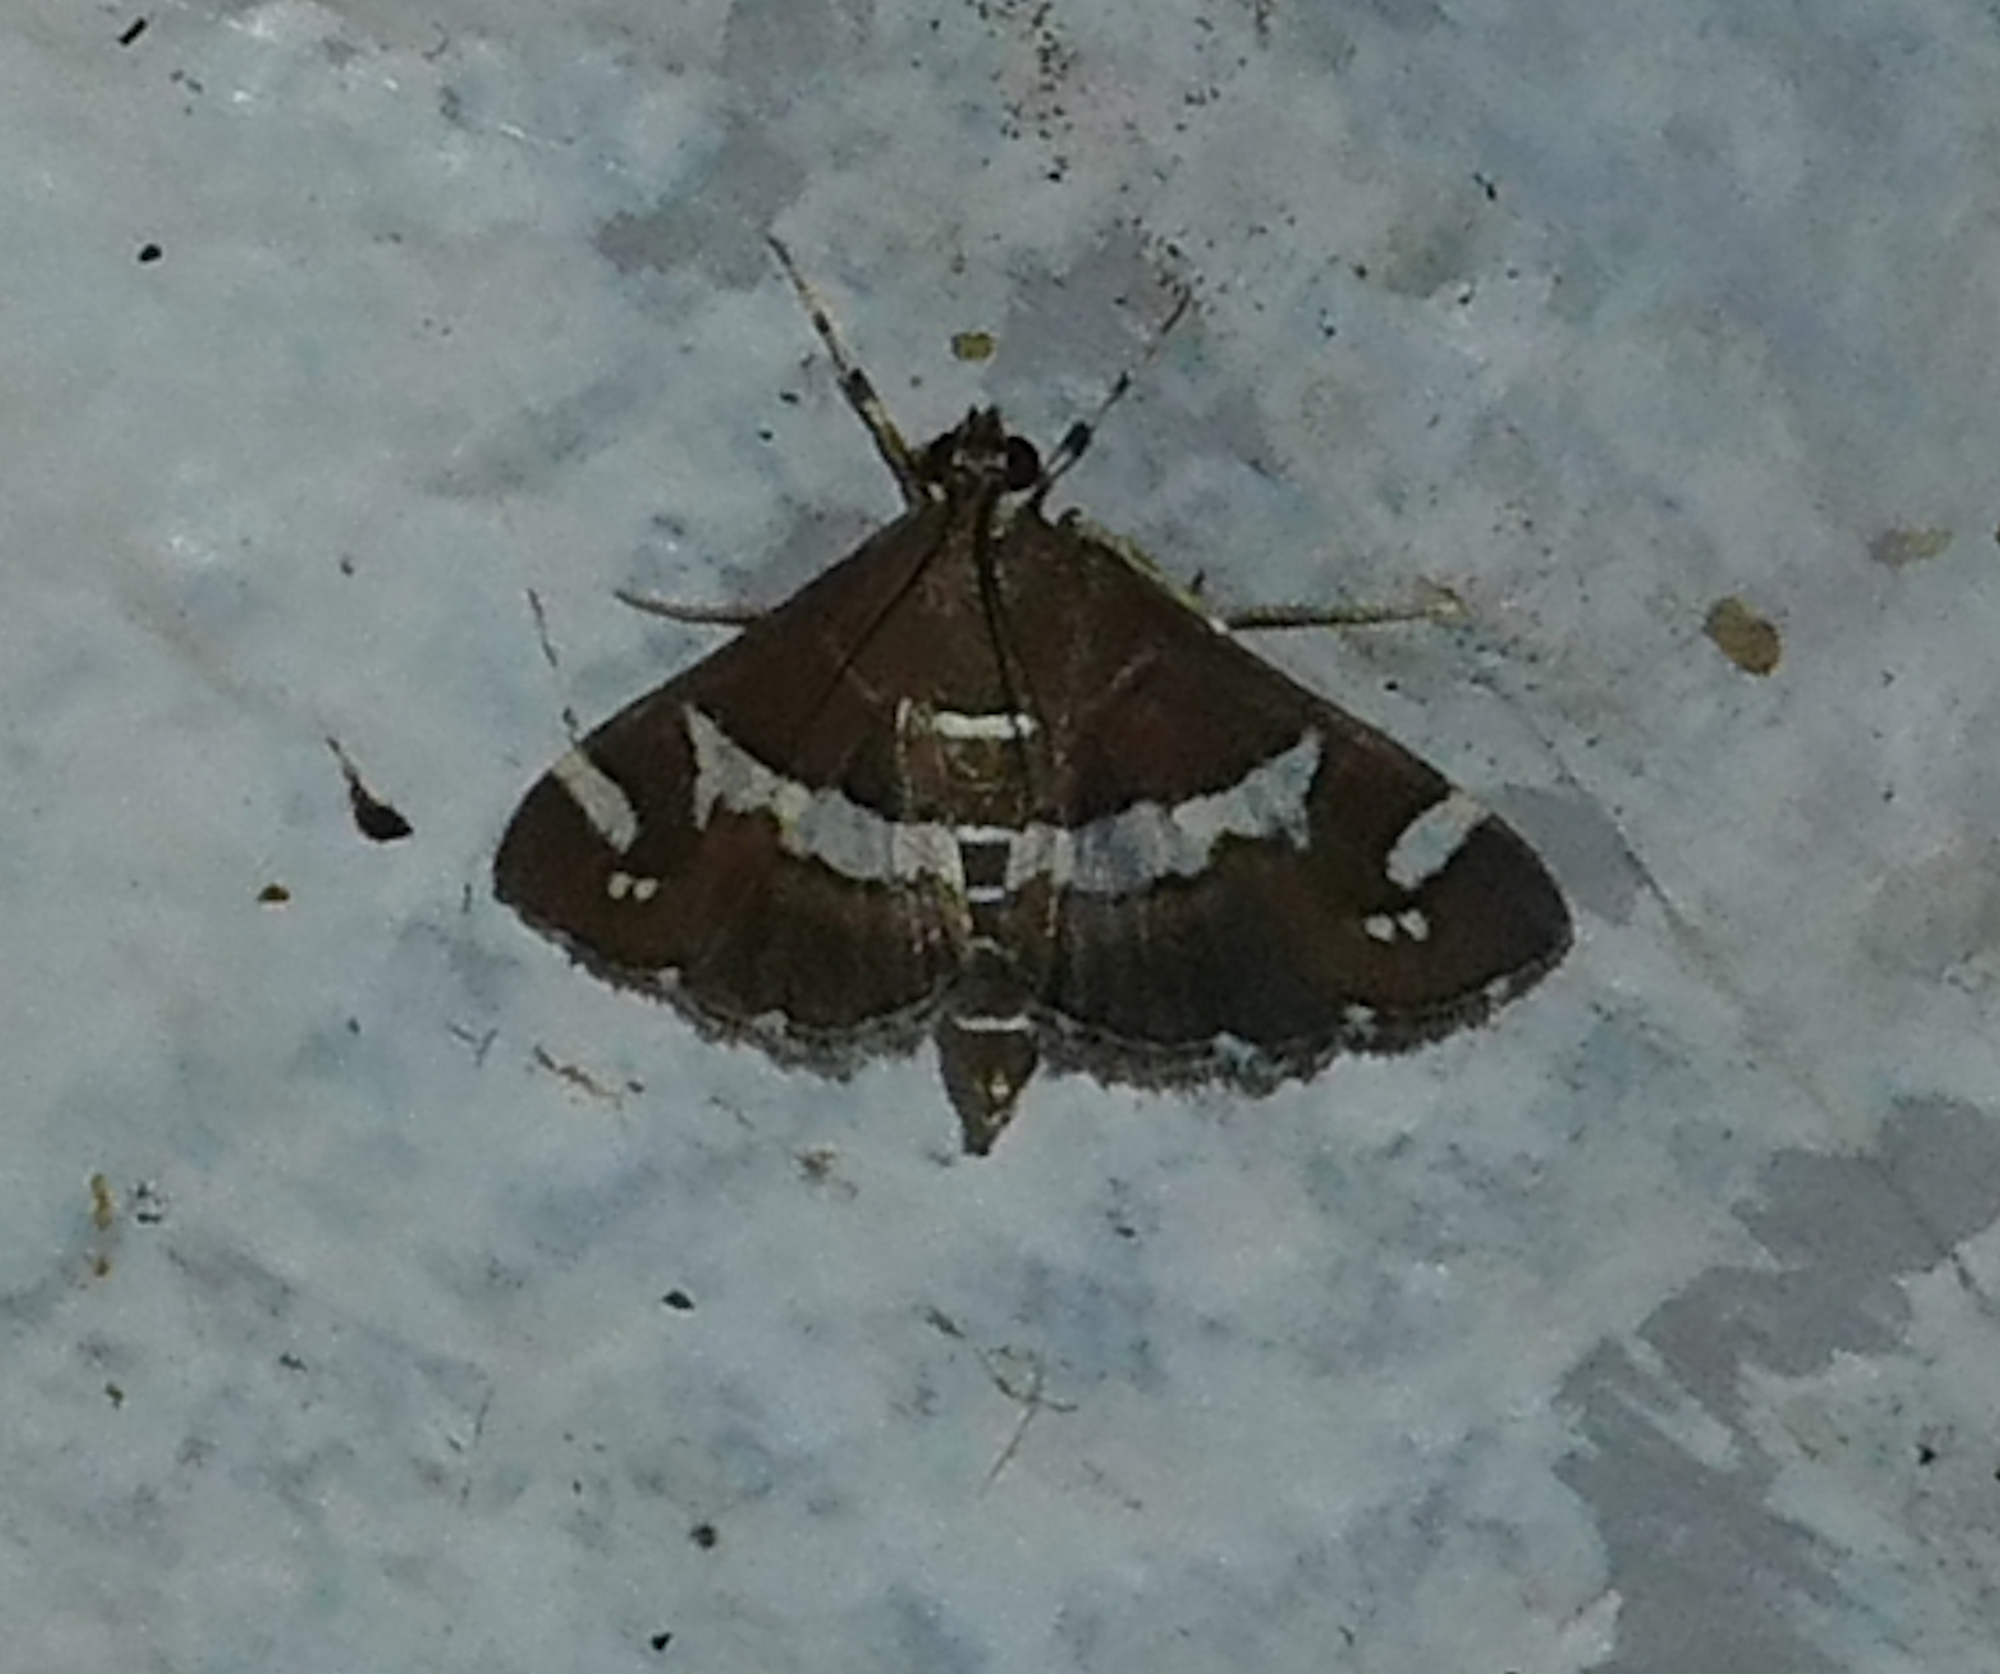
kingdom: Animalia
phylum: Arthropoda
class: Insecta
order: Lepidoptera
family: Crambidae
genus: Spoladea
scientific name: Spoladea recurvalis
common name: Beet webworm moth
